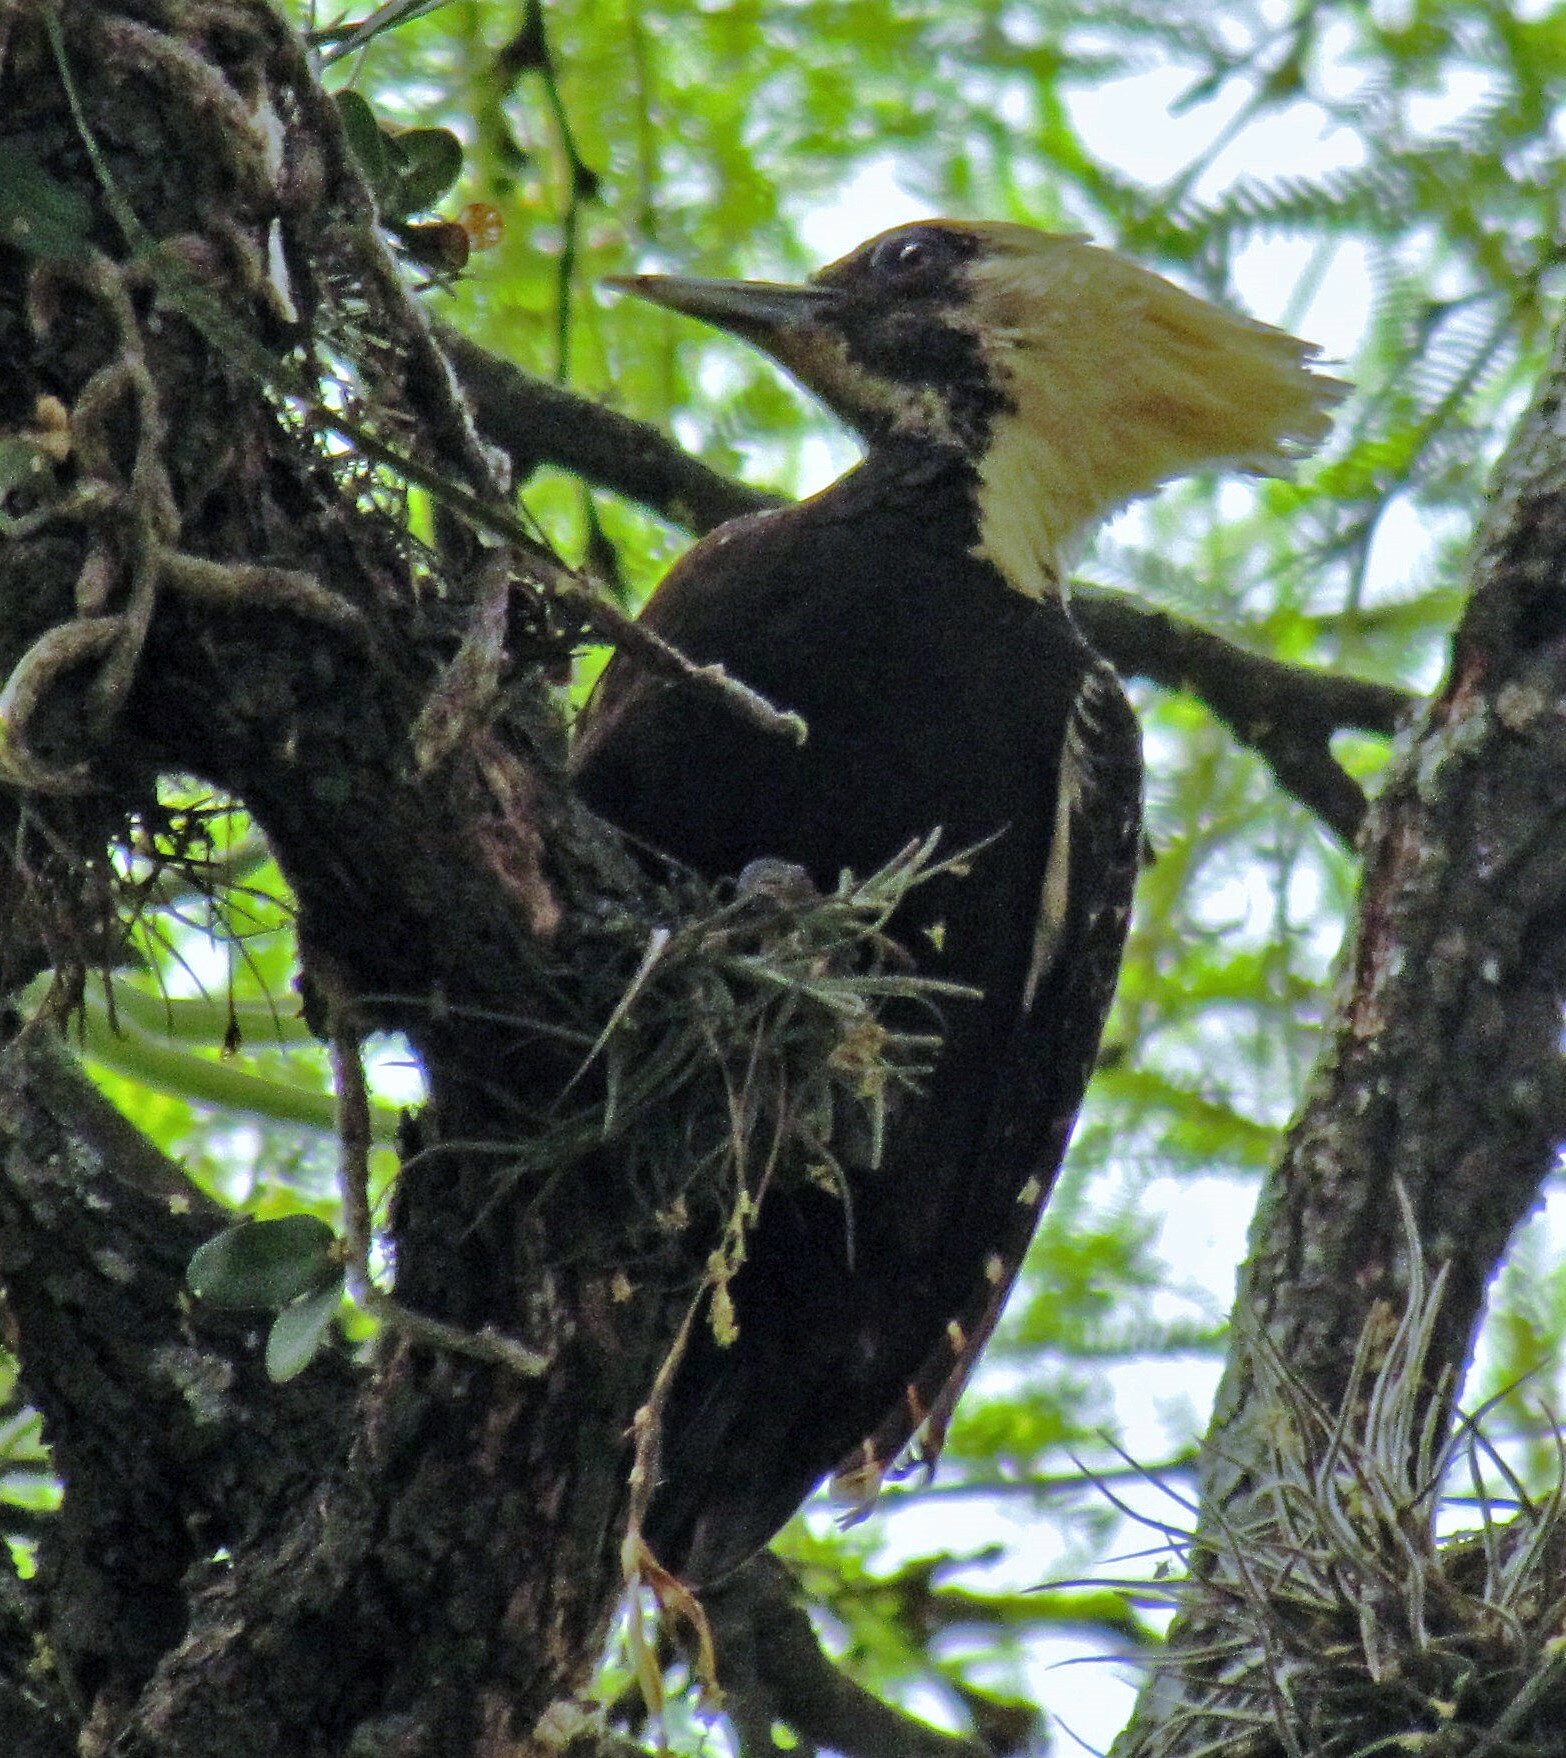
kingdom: Animalia
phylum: Chordata
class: Aves
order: Piciformes
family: Picidae
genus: Celeus
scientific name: Celeus lugubris
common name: Pale-crested woodpecker
